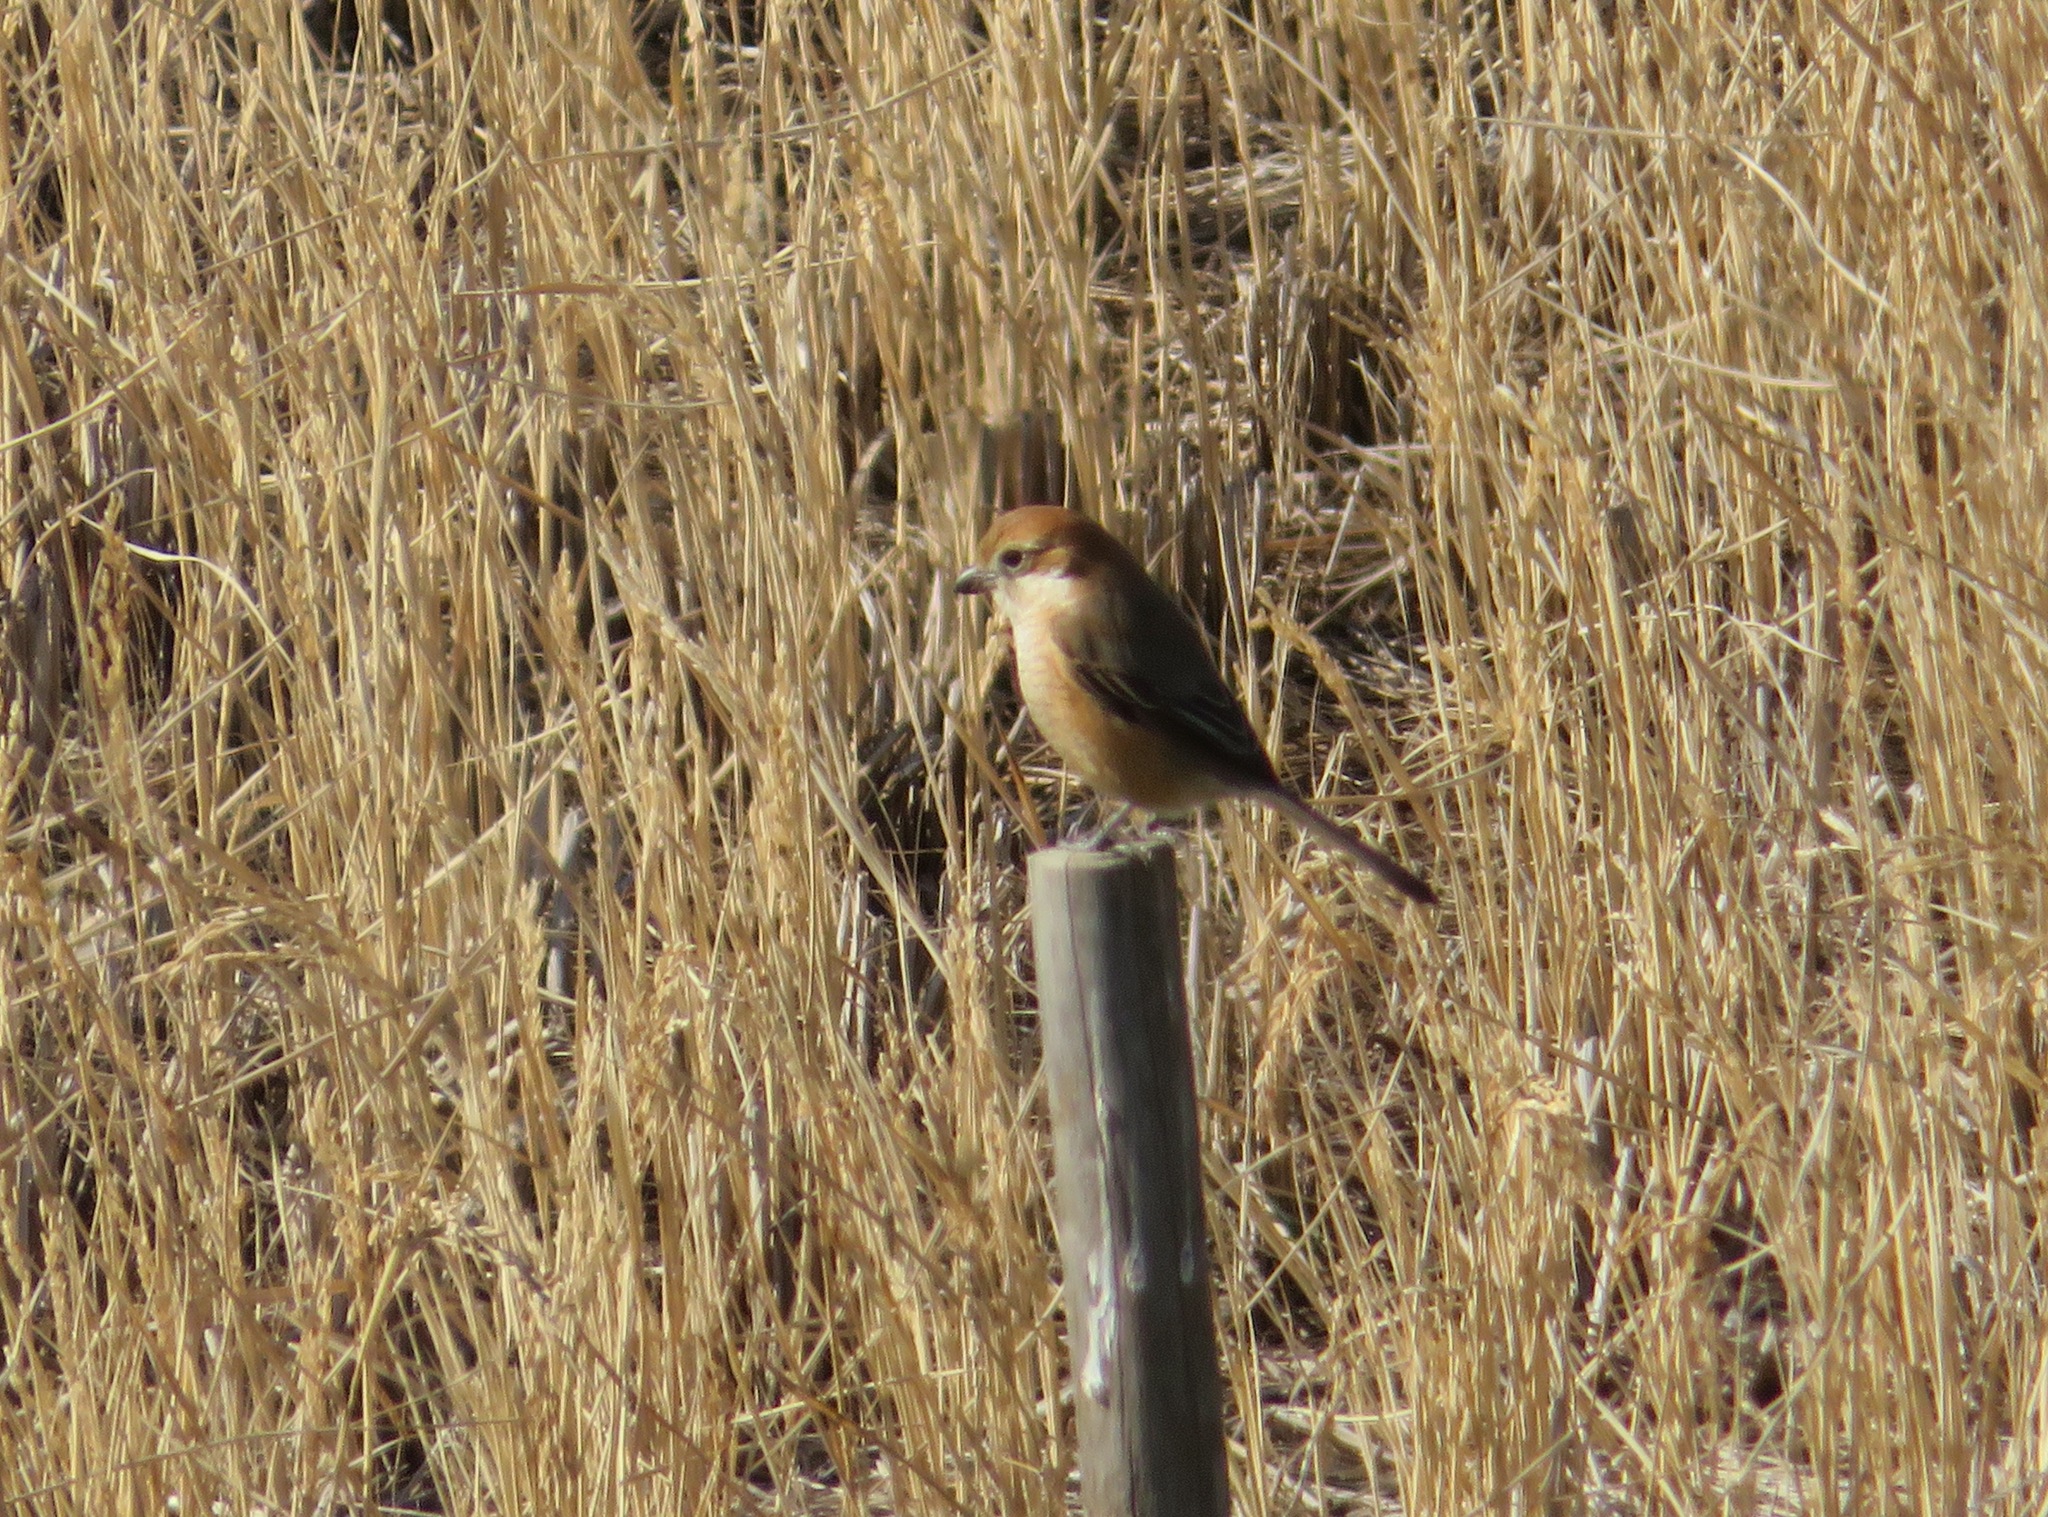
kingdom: Animalia
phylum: Chordata
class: Aves
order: Passeriformes
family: Laniidae
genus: Lanius
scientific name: Lanius bucephalus
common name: Bull-headed shrike
